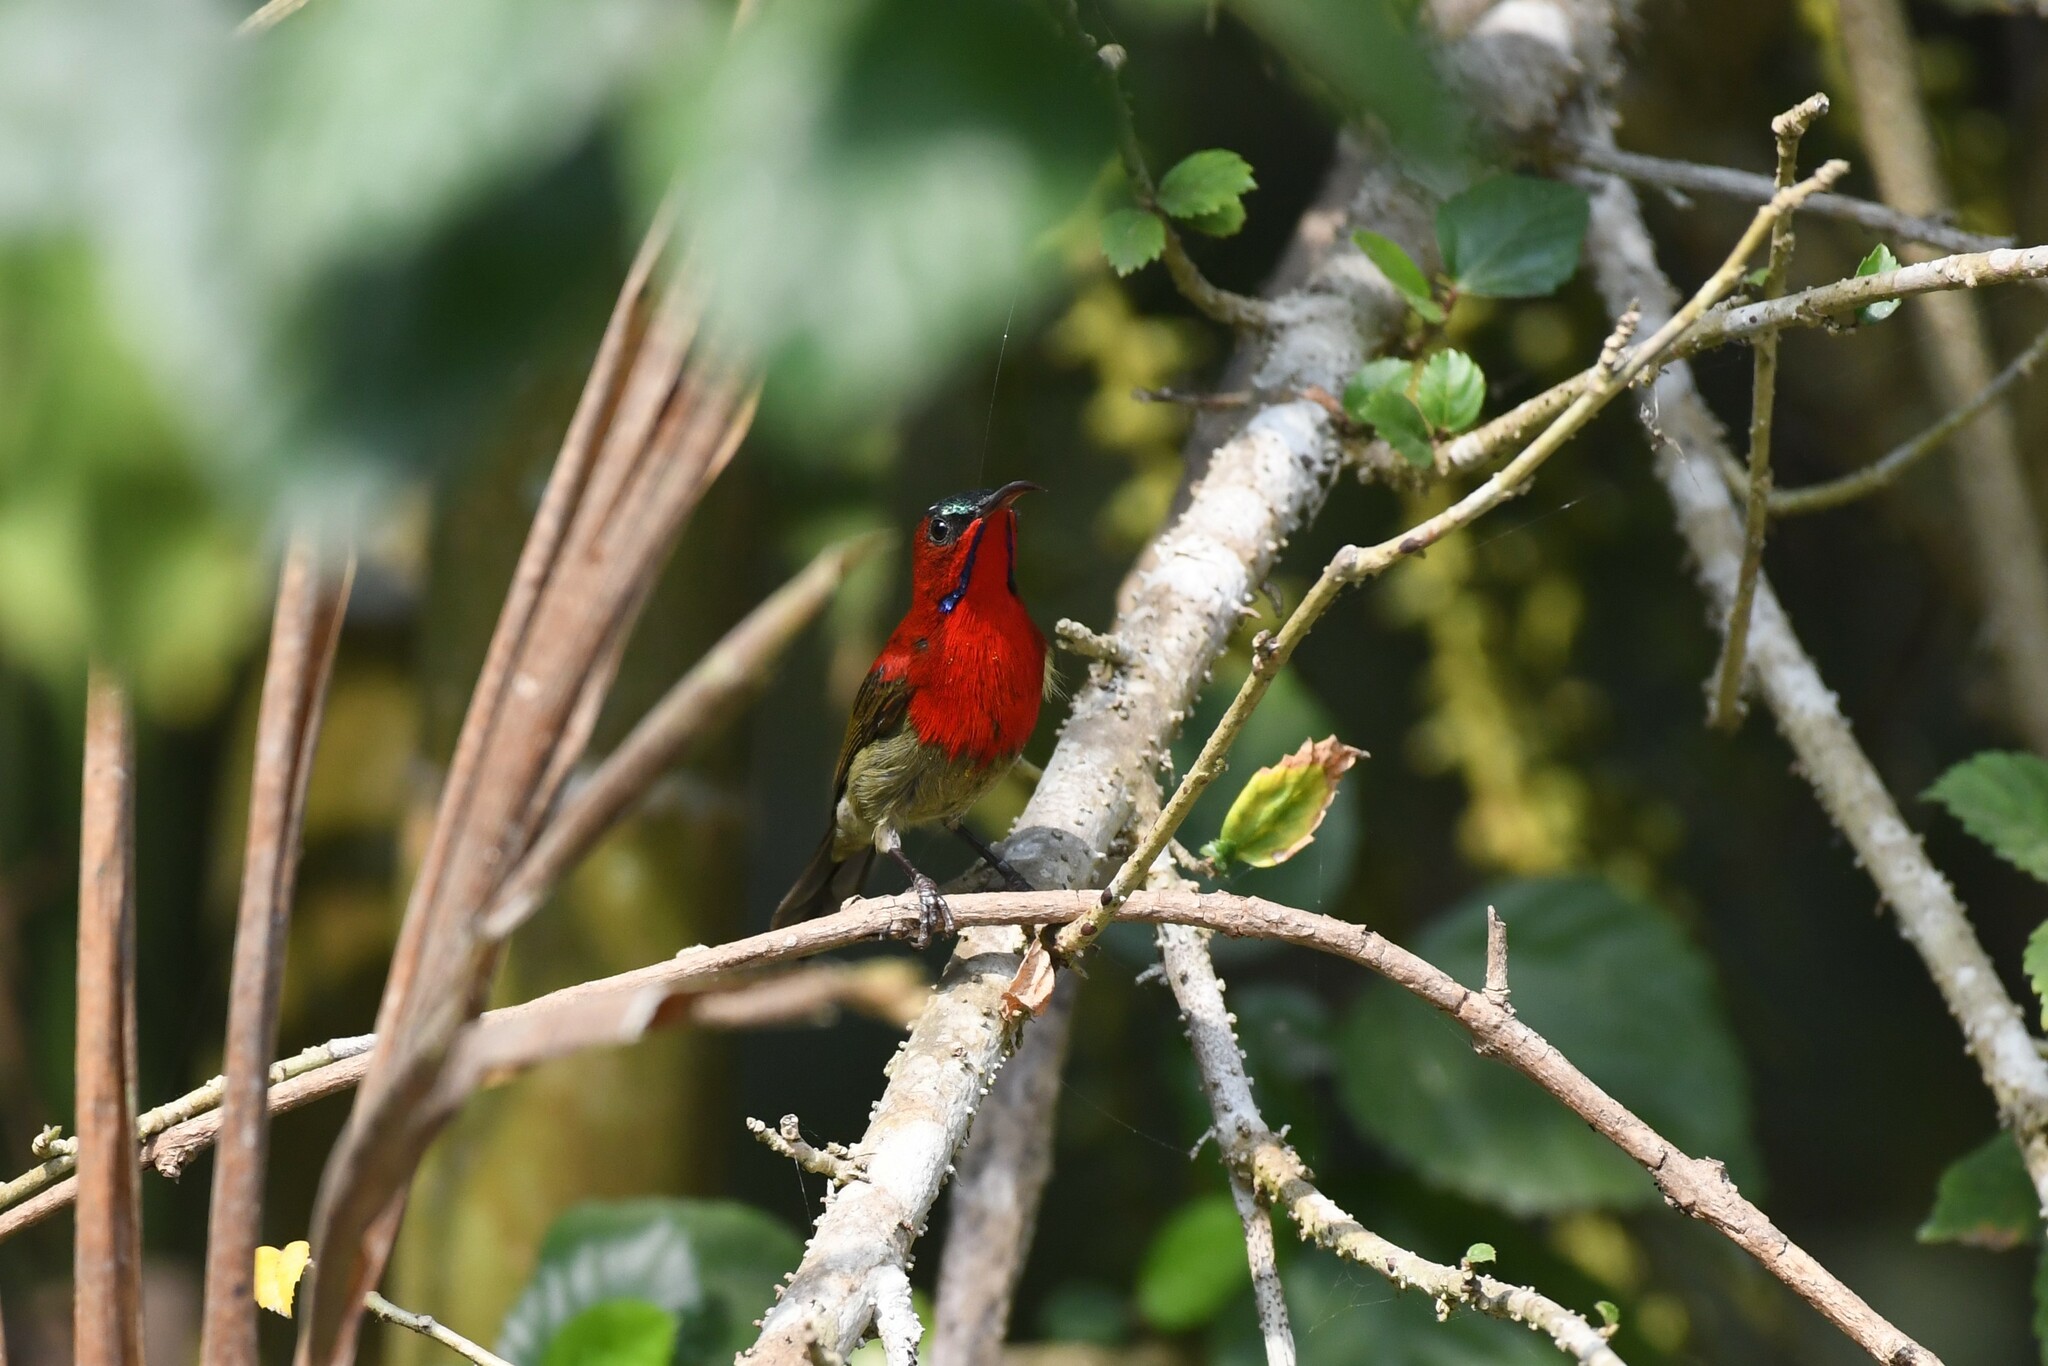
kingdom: Animalia
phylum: Chordata
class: Aves
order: Passeriformes
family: Nectariniidae
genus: Aethopyga
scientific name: Aethopyga siparaja
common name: Crimson sunbird
